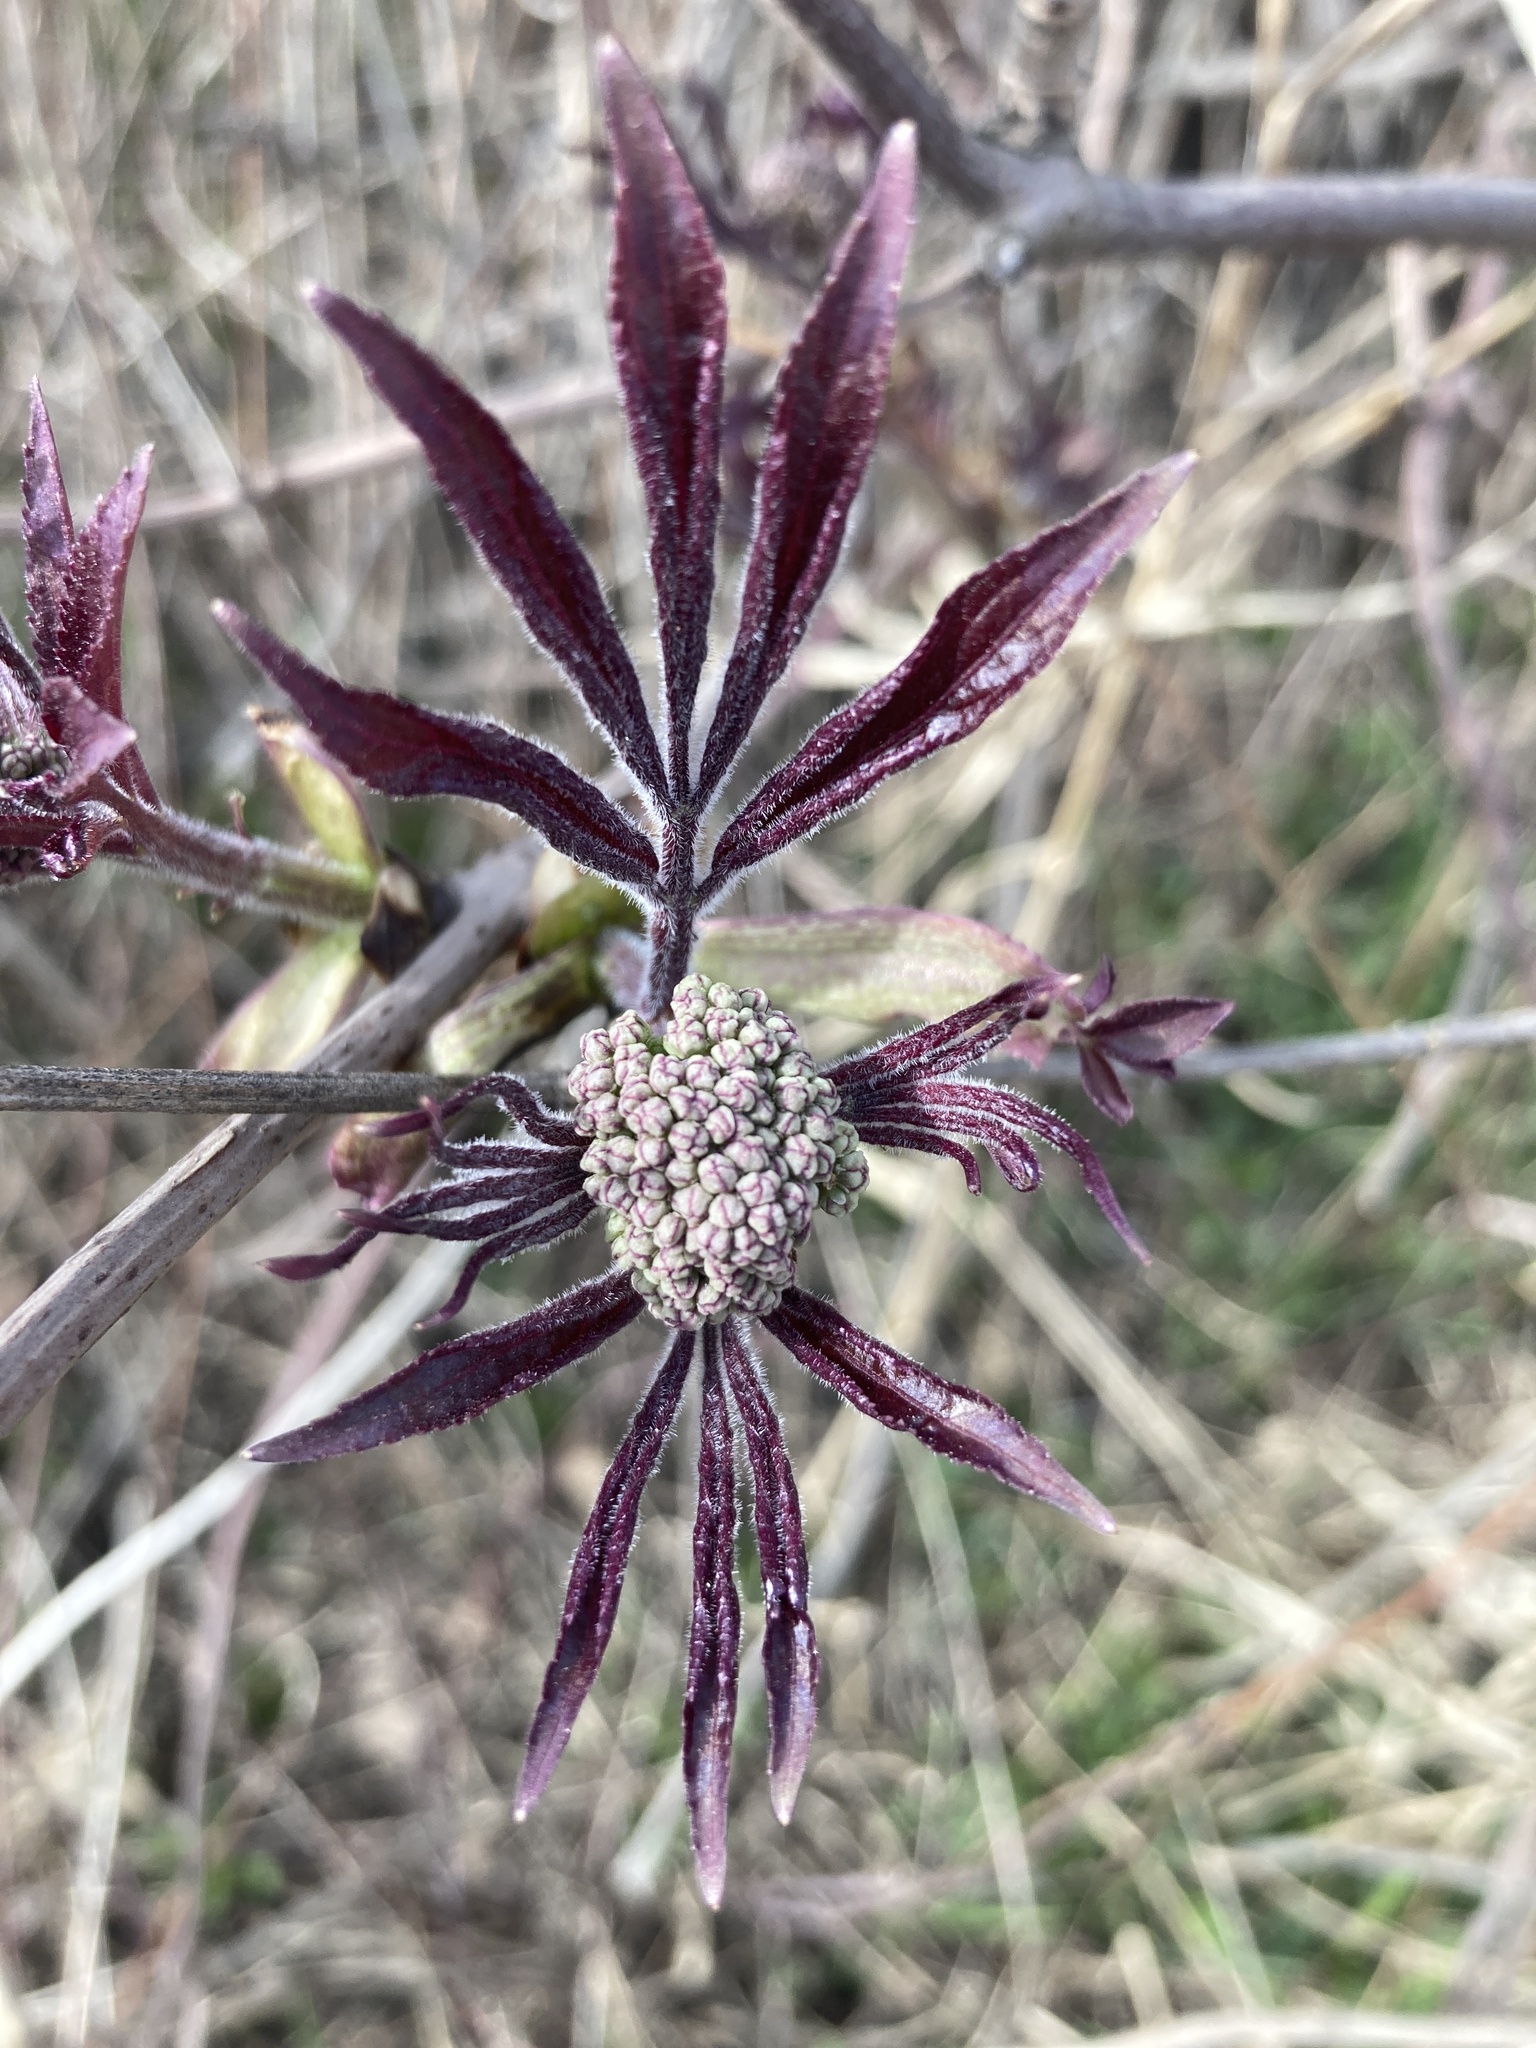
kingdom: Plantae
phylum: Tracheophyta
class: Magnoliopsida
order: Dipsacales
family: Viburnaceae
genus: Sambucus
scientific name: Sambucus racemosa
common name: Red-berried elder
